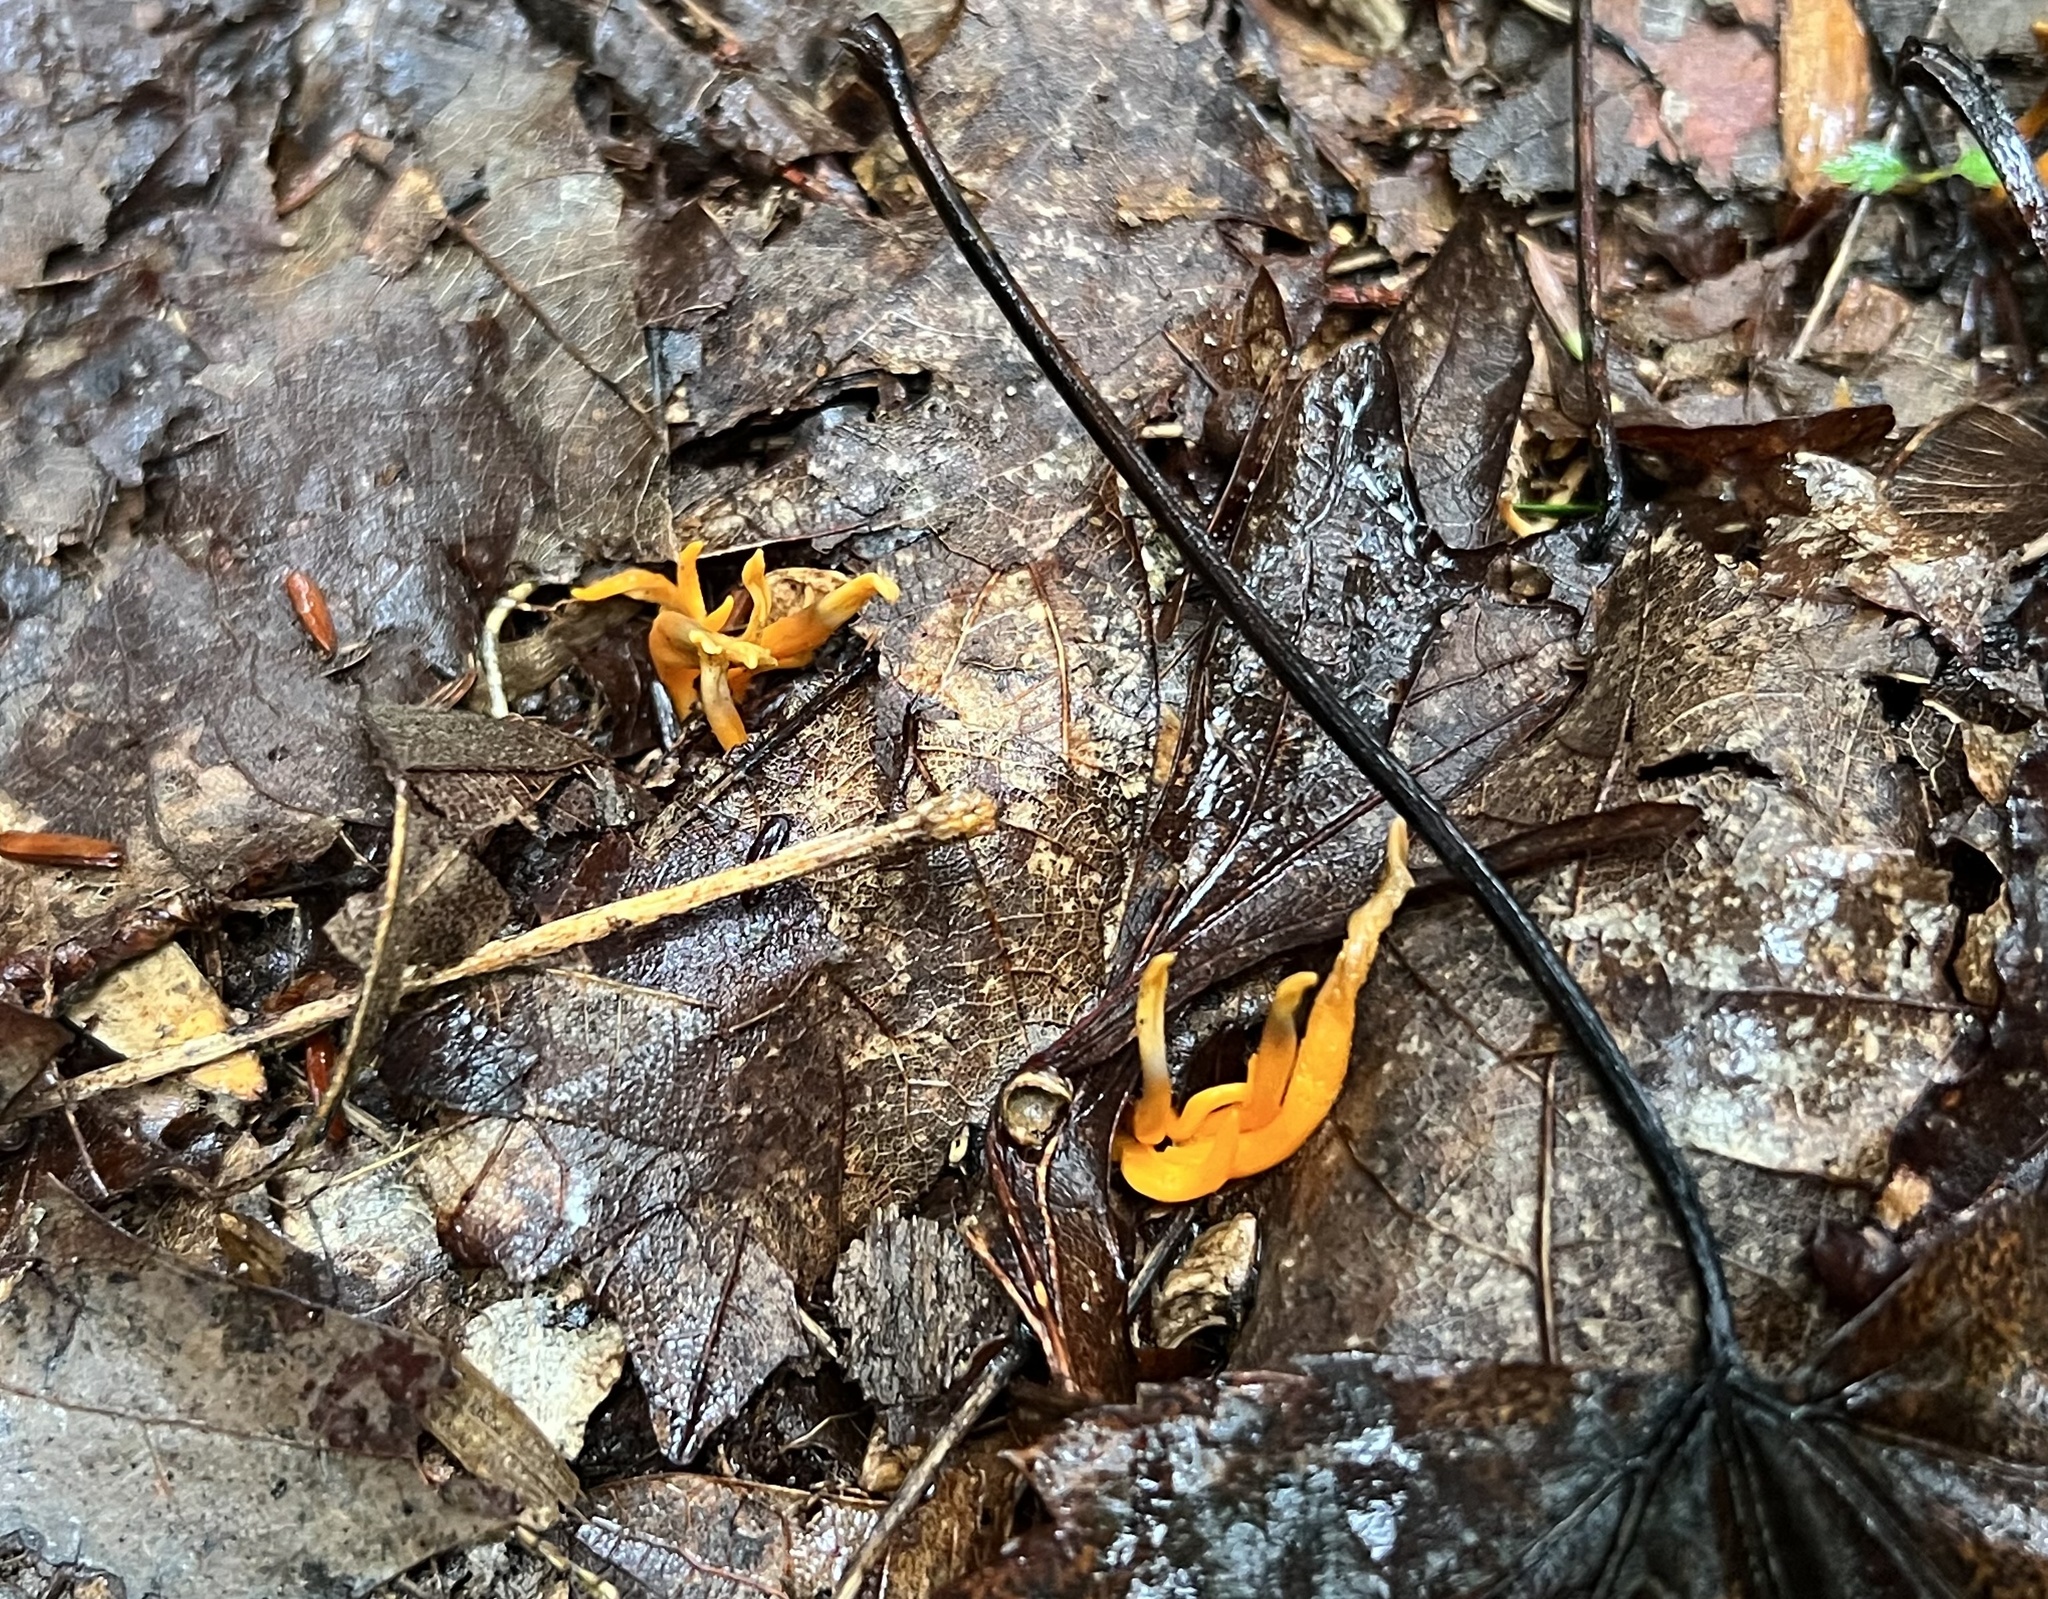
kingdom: Fungi
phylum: Basidiomycota
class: Agaricomycetes
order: Agaricales
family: Clavariaceae
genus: Clavulinopsis
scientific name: Clavulinopsis aurantiocinnabarina
